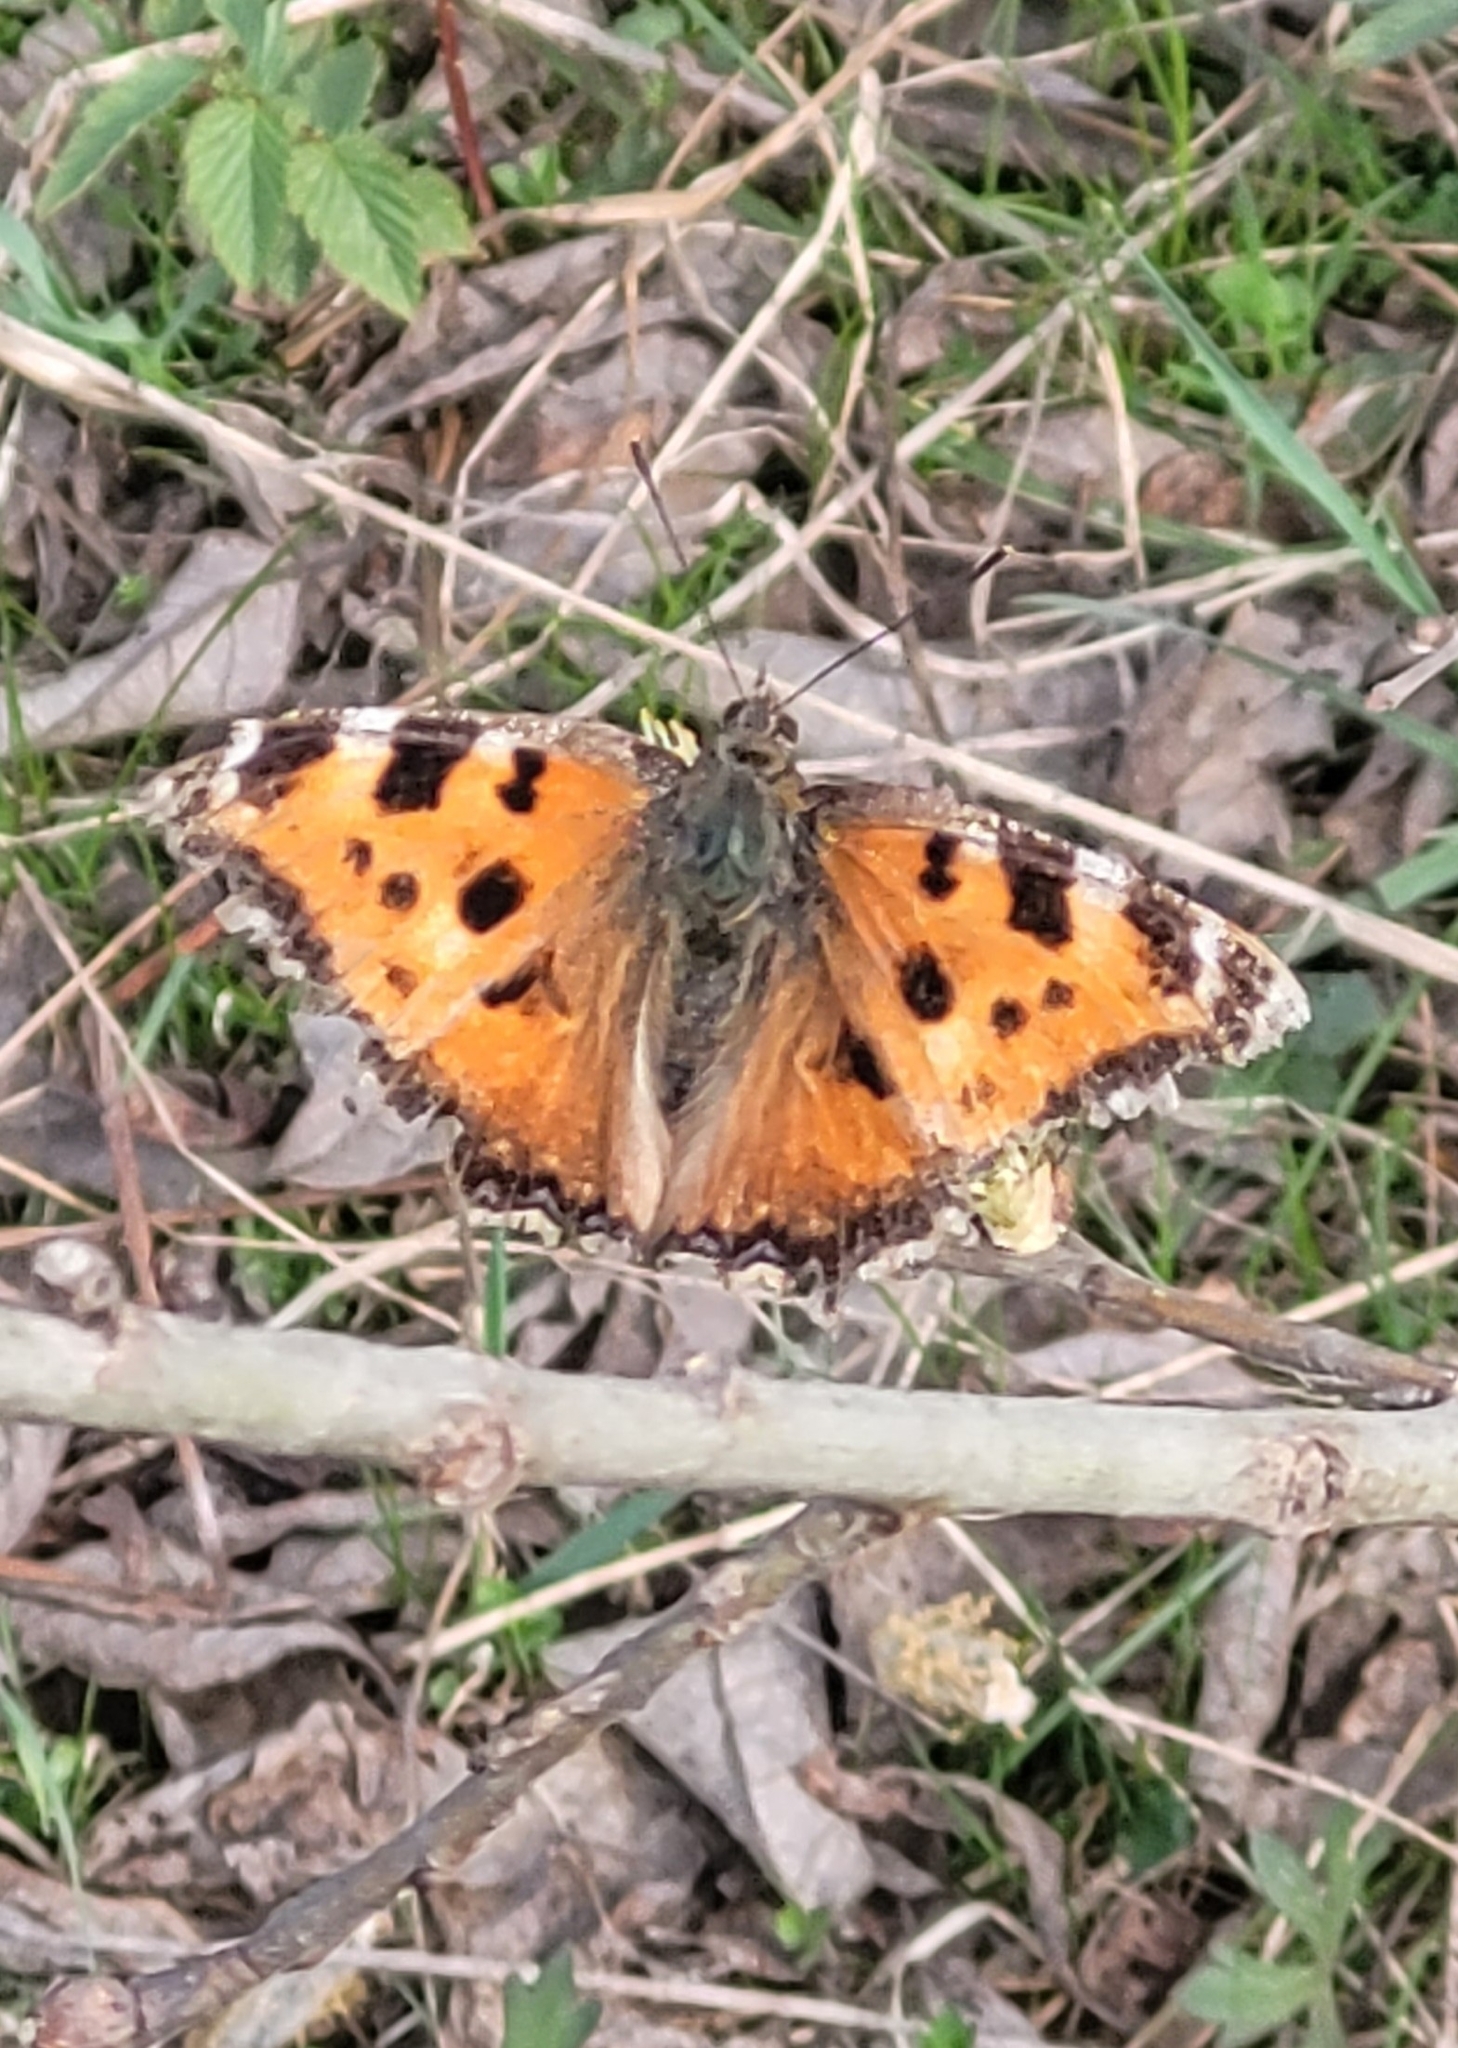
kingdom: Animalia
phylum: Arthropoda
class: Insecta
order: Lepidoptera
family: Nymphalidae
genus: Nymphalis
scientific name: Nymphalis xanthomelas
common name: Scarce tortoiseshell
